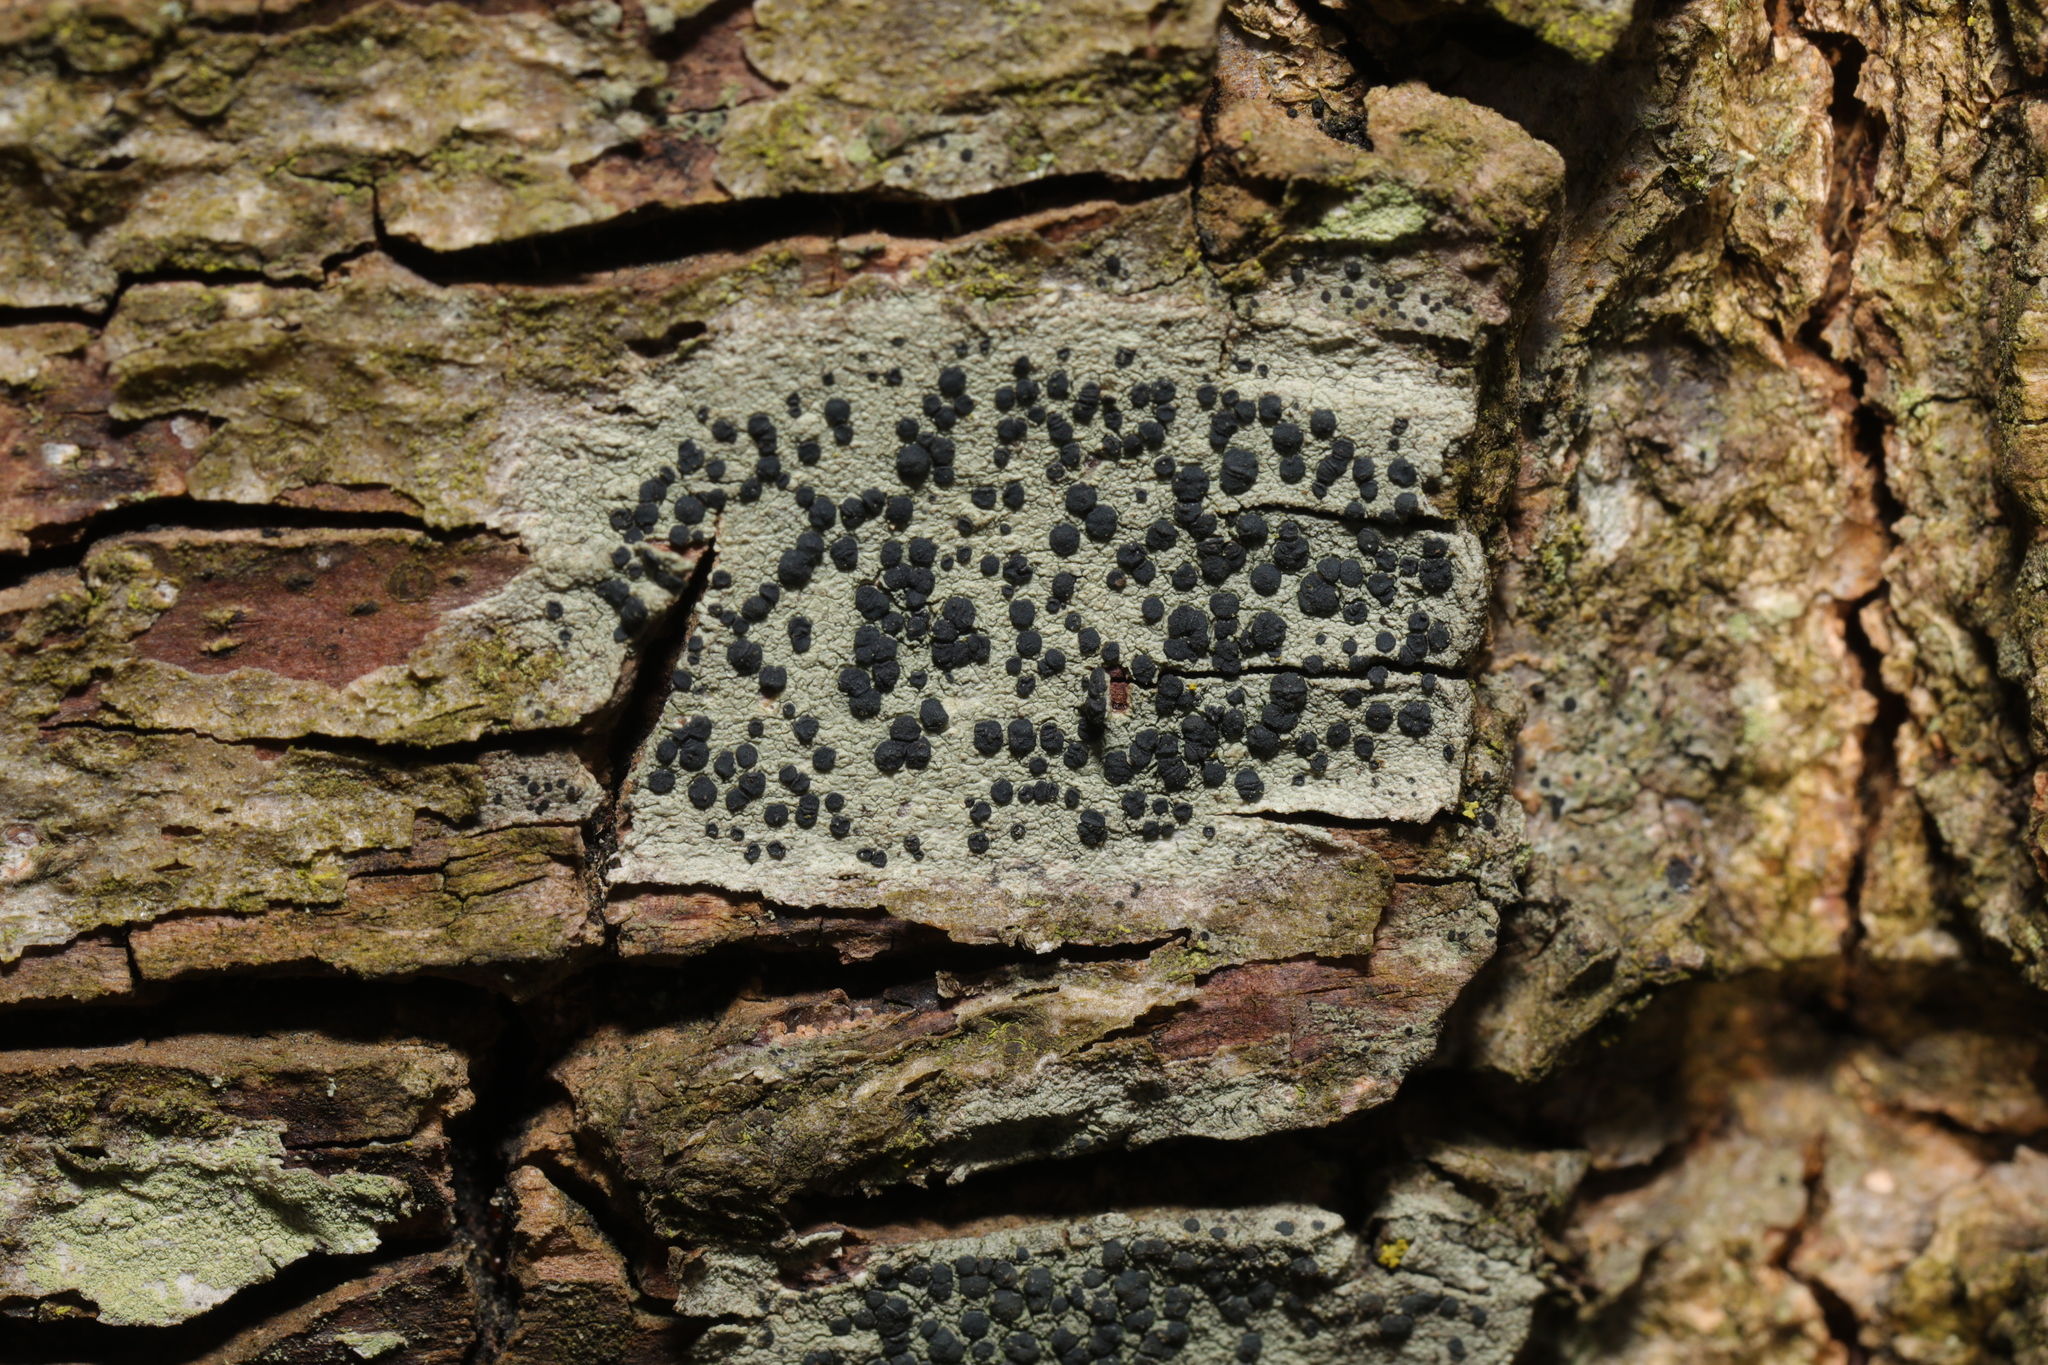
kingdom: Fungi
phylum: Ascomycota
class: Lecanoromycetes
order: Lecanorales
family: Lecanoraceae
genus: Lecidella
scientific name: Lecidella elaeochroma
